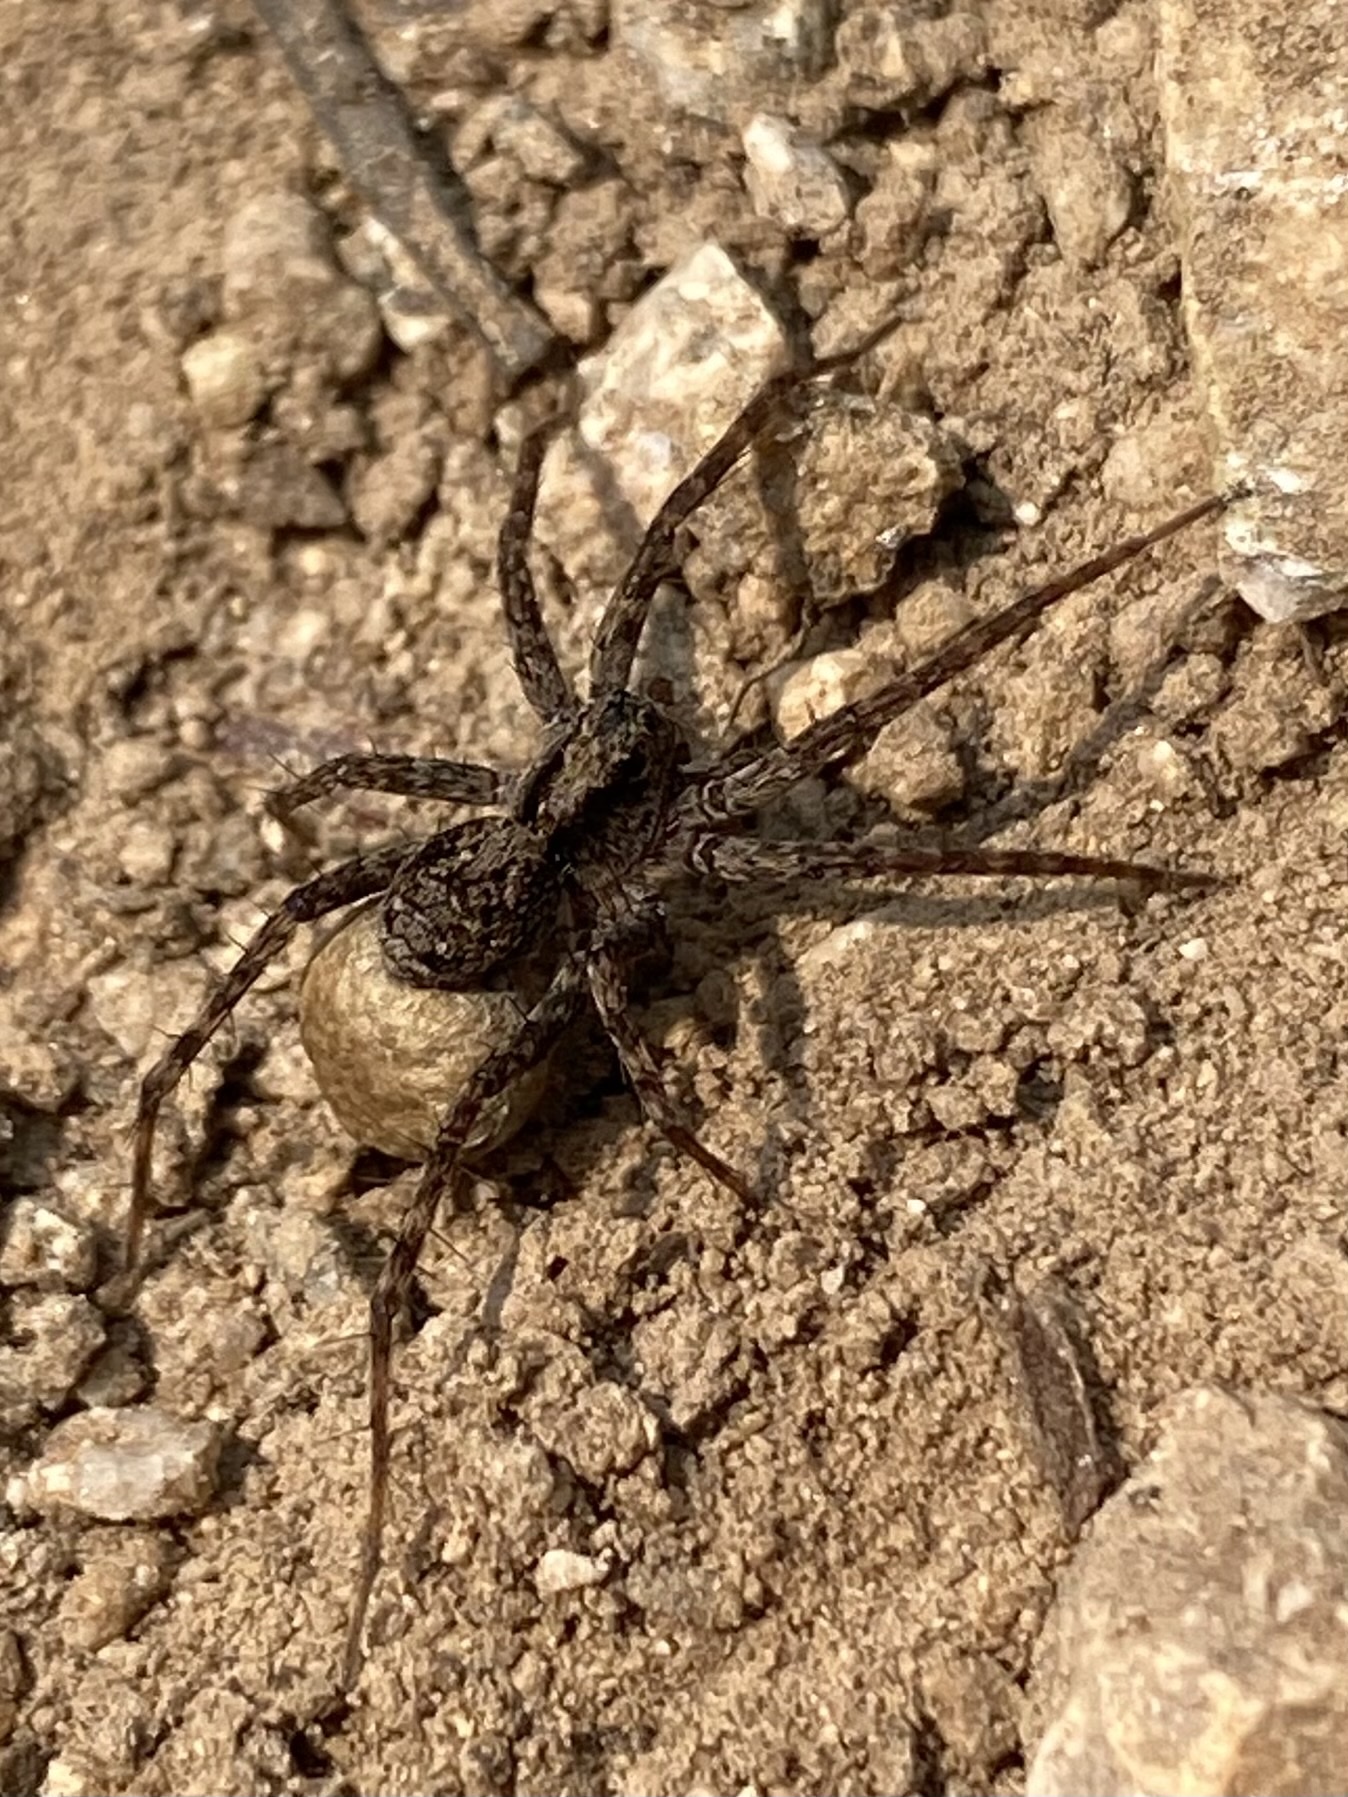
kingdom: Animalia
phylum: Arthropoda
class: Arachnida
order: Araneae
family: Lycosidae
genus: Pardosa
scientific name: Pardosa
